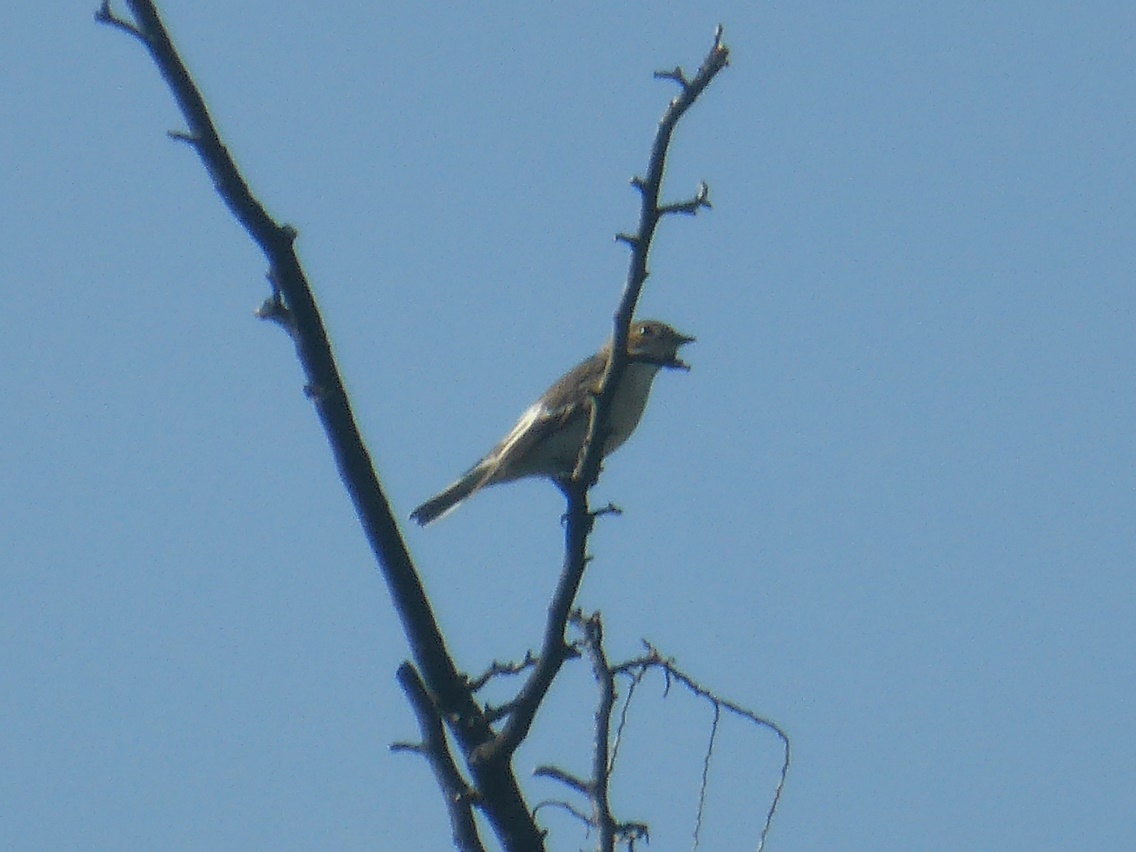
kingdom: Animalia
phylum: Chordata
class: Aves
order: Passeriformes
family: Muscicapidae
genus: Ficedula
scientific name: Ficedula hypoleuca
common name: European pied flycatcher
